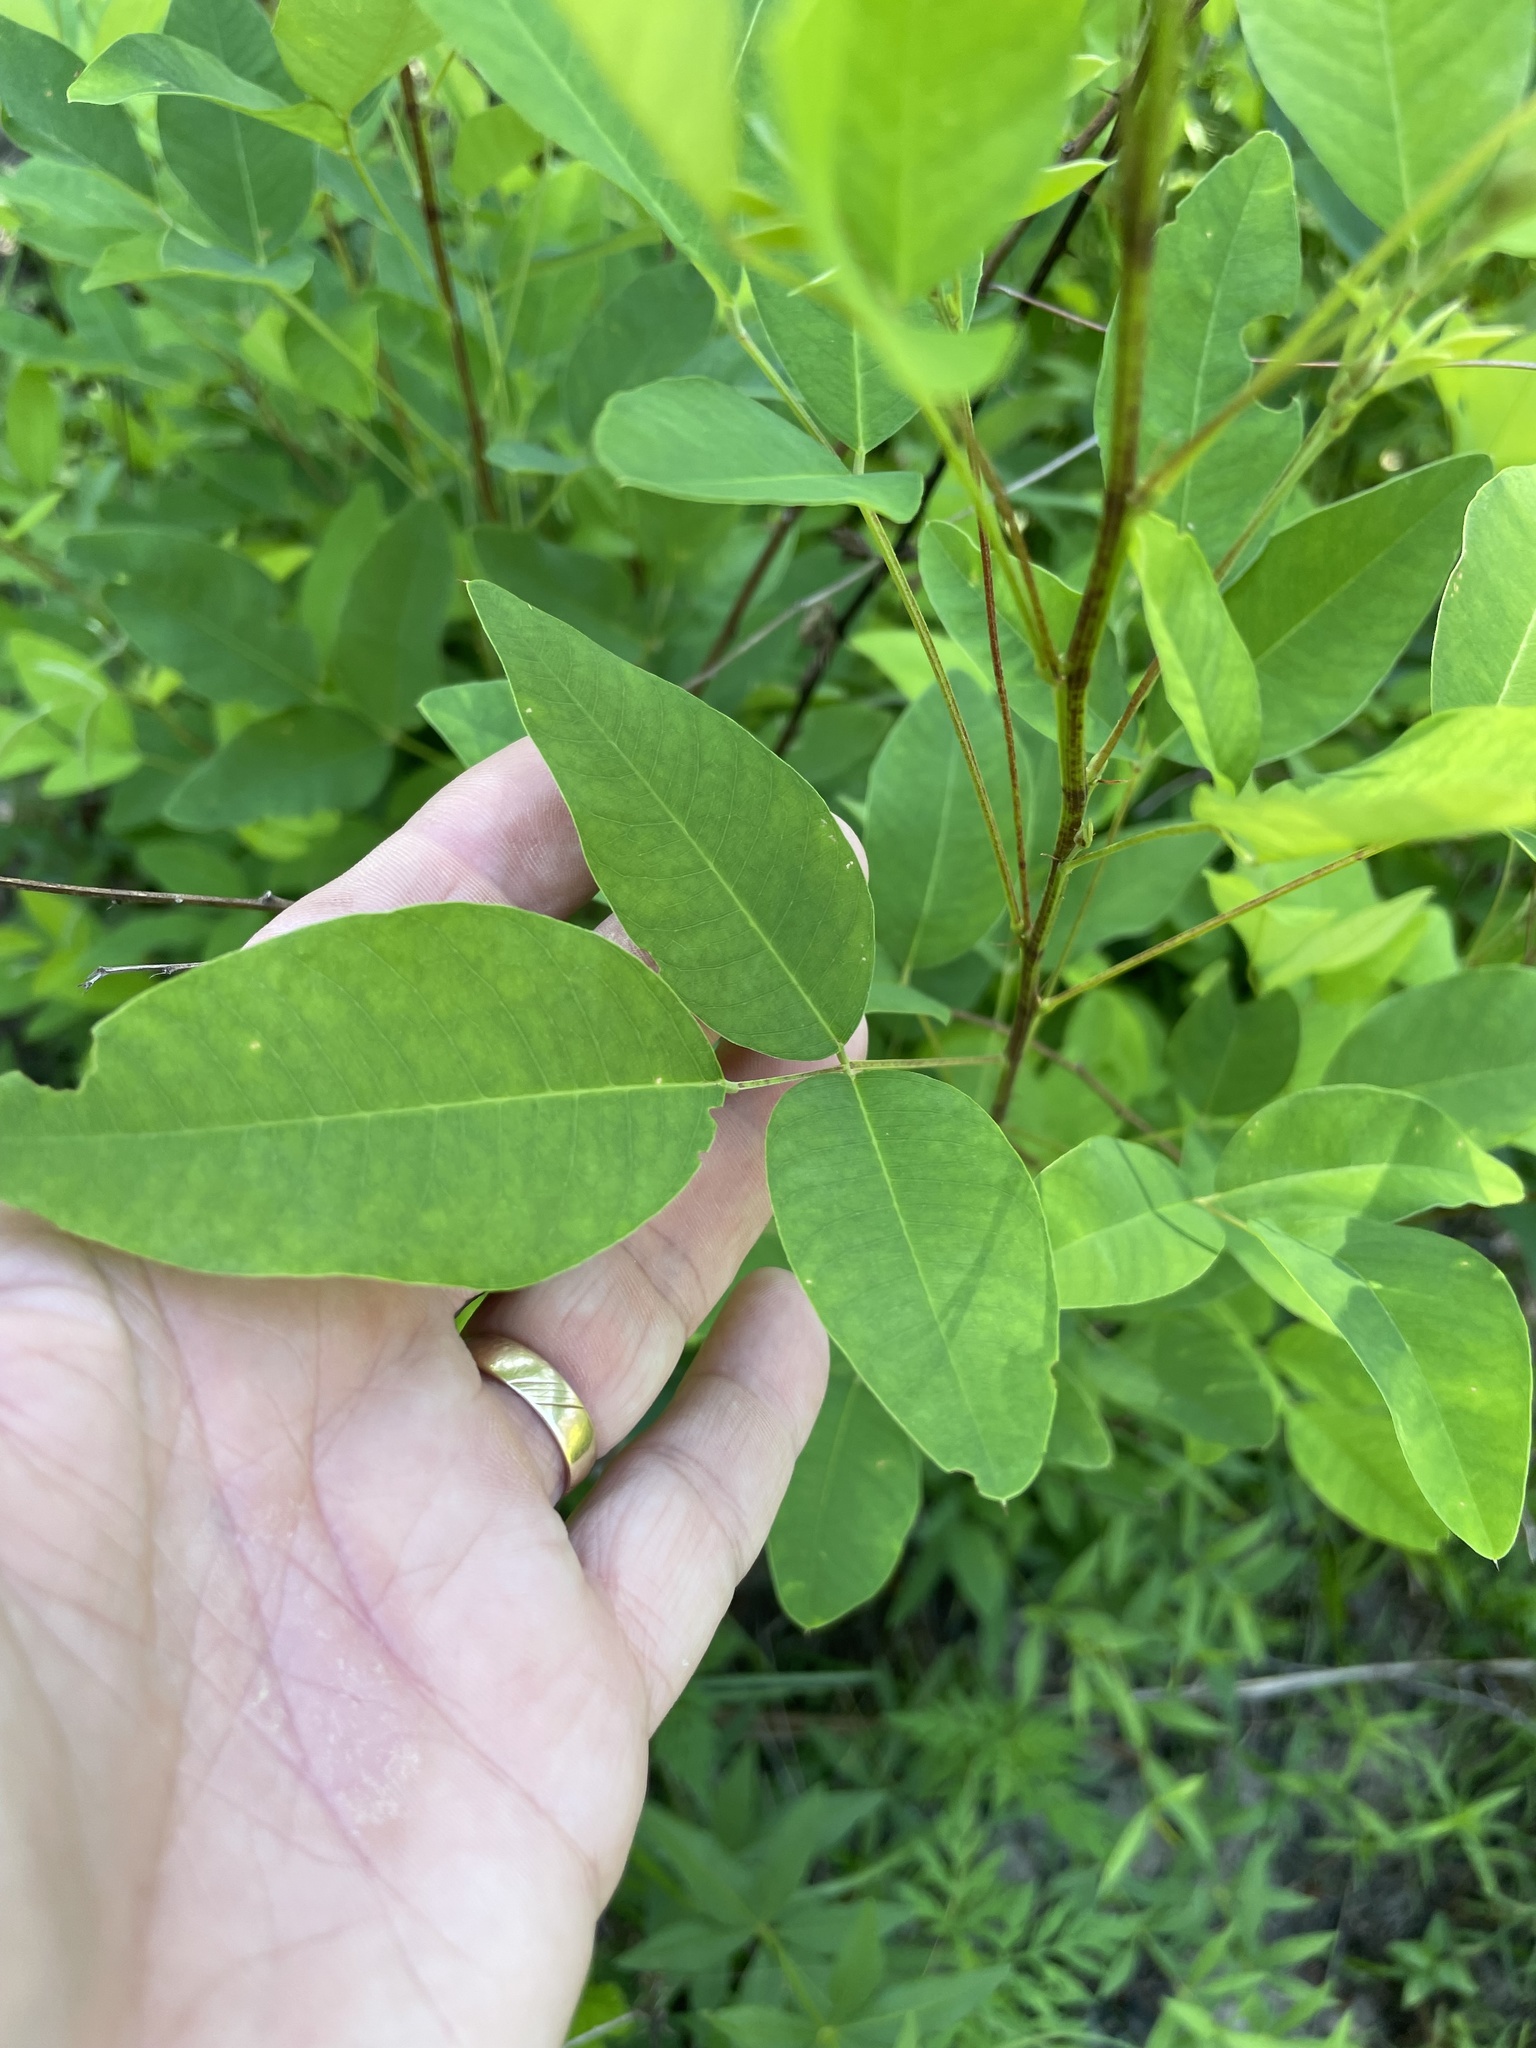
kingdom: Plantae
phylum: Tracheophyta
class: Magnoliopsida
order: Fabales
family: Fabaceae
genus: Lespedeza
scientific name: Lespedeza bicolor
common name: Shrub lespedeza
